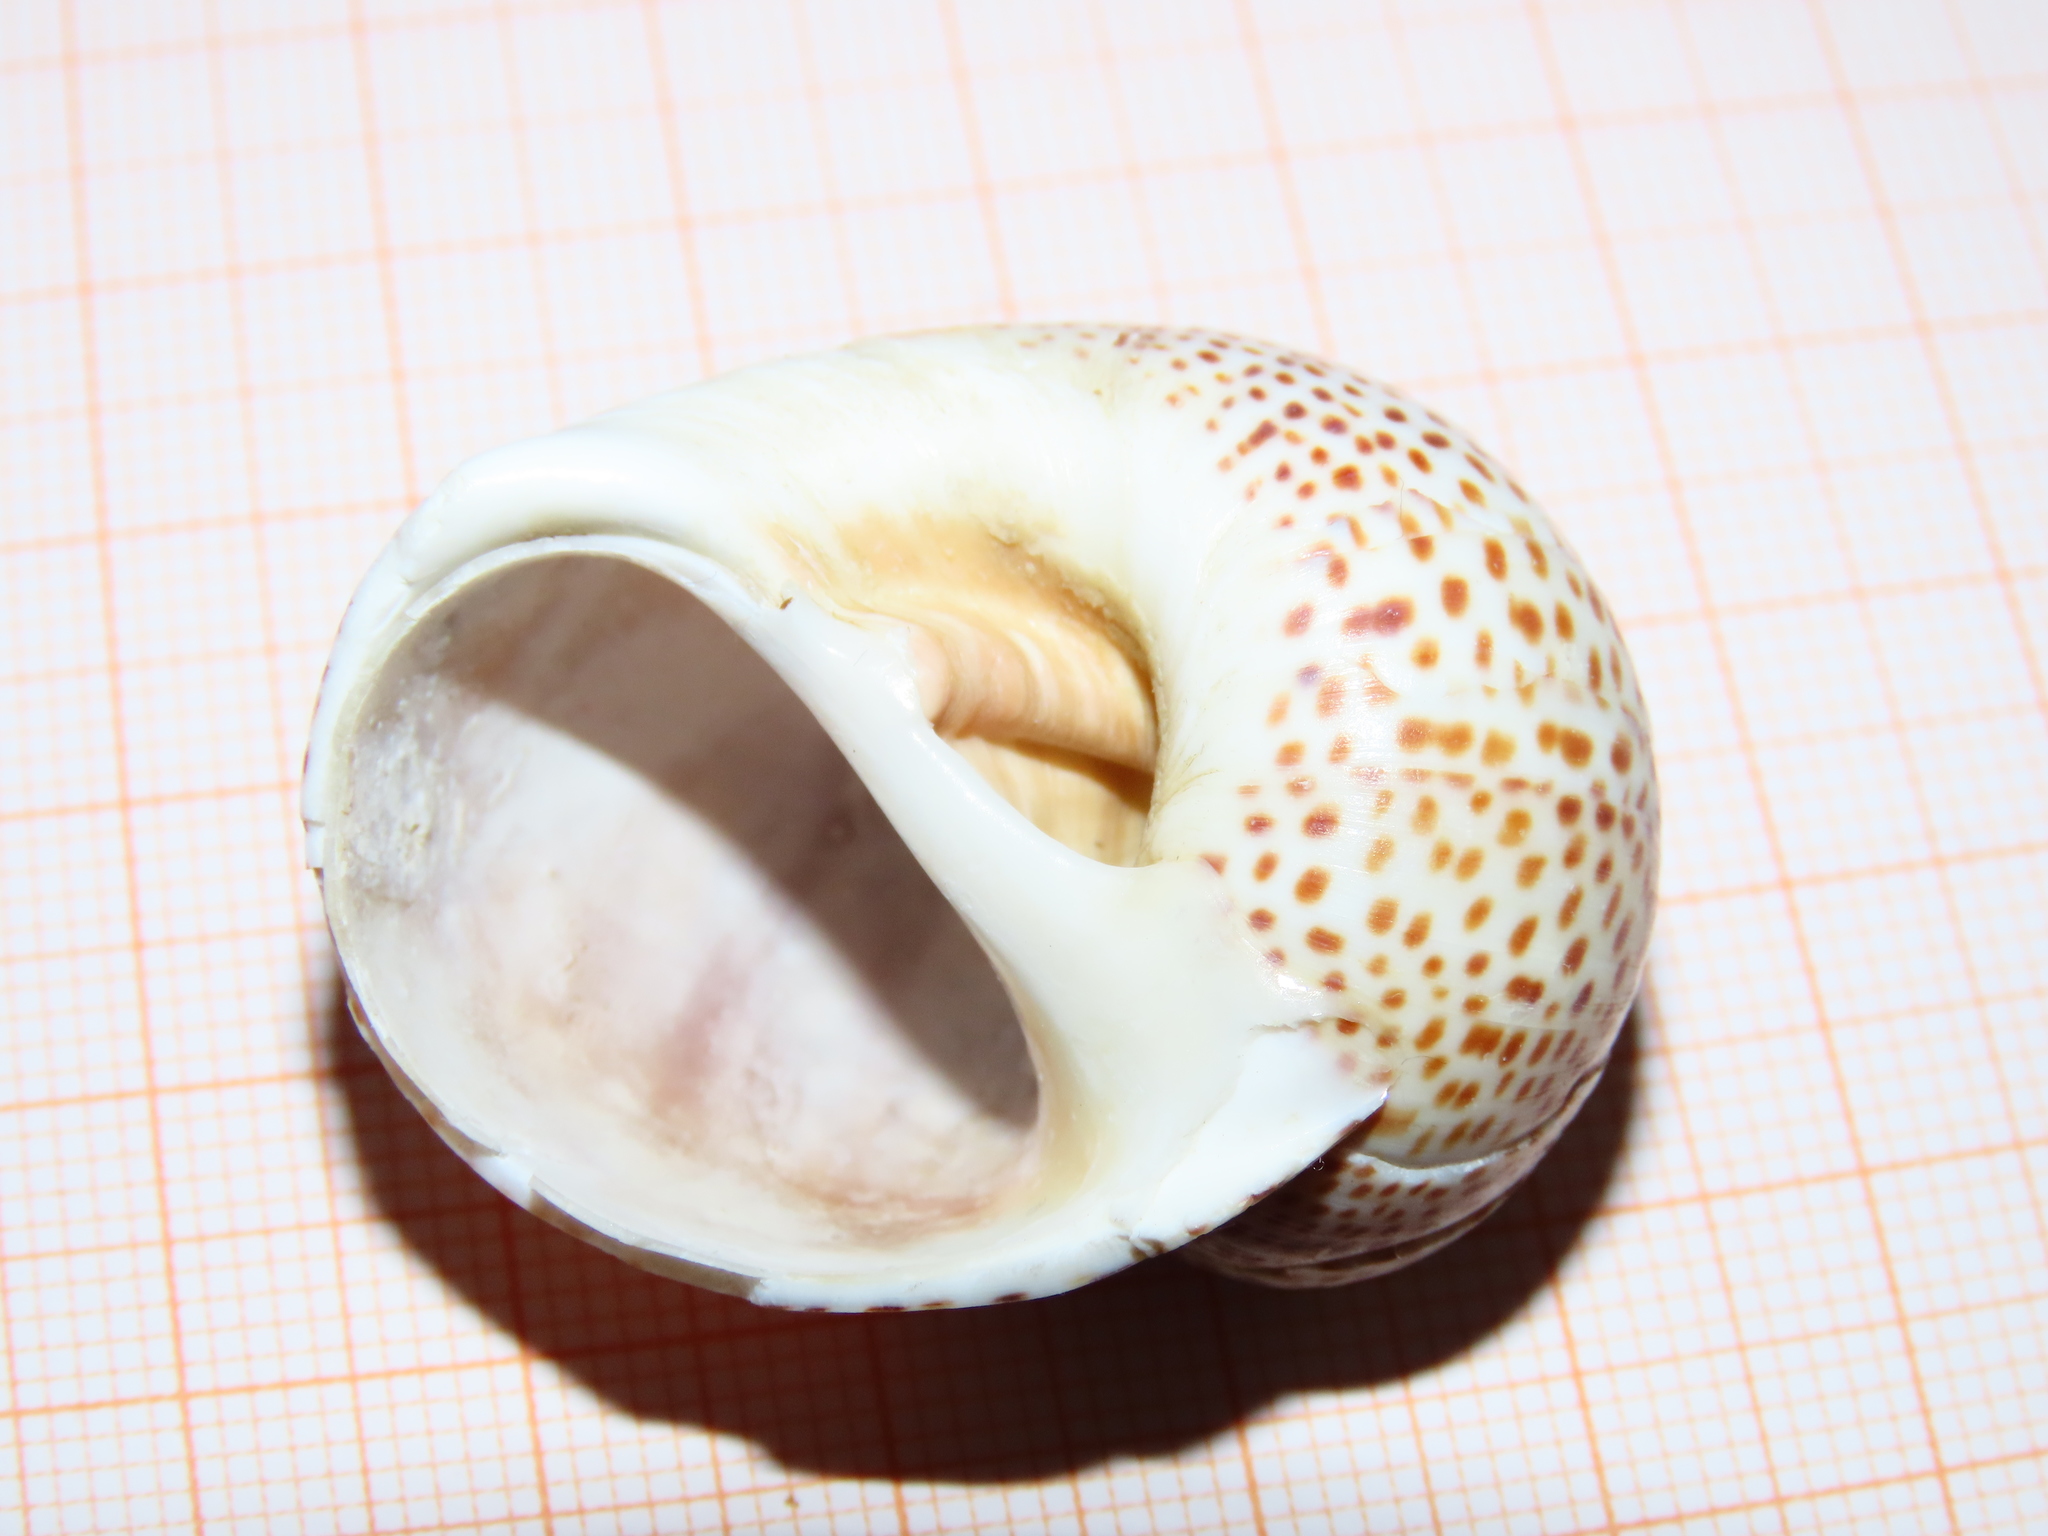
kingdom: Animalia
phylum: Mollusca
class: Gastropoda
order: Littorinimorpha
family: Naticidae
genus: Naticarius
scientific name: Naticarius stercusmuscarum
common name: Fly-speck moonsnail
